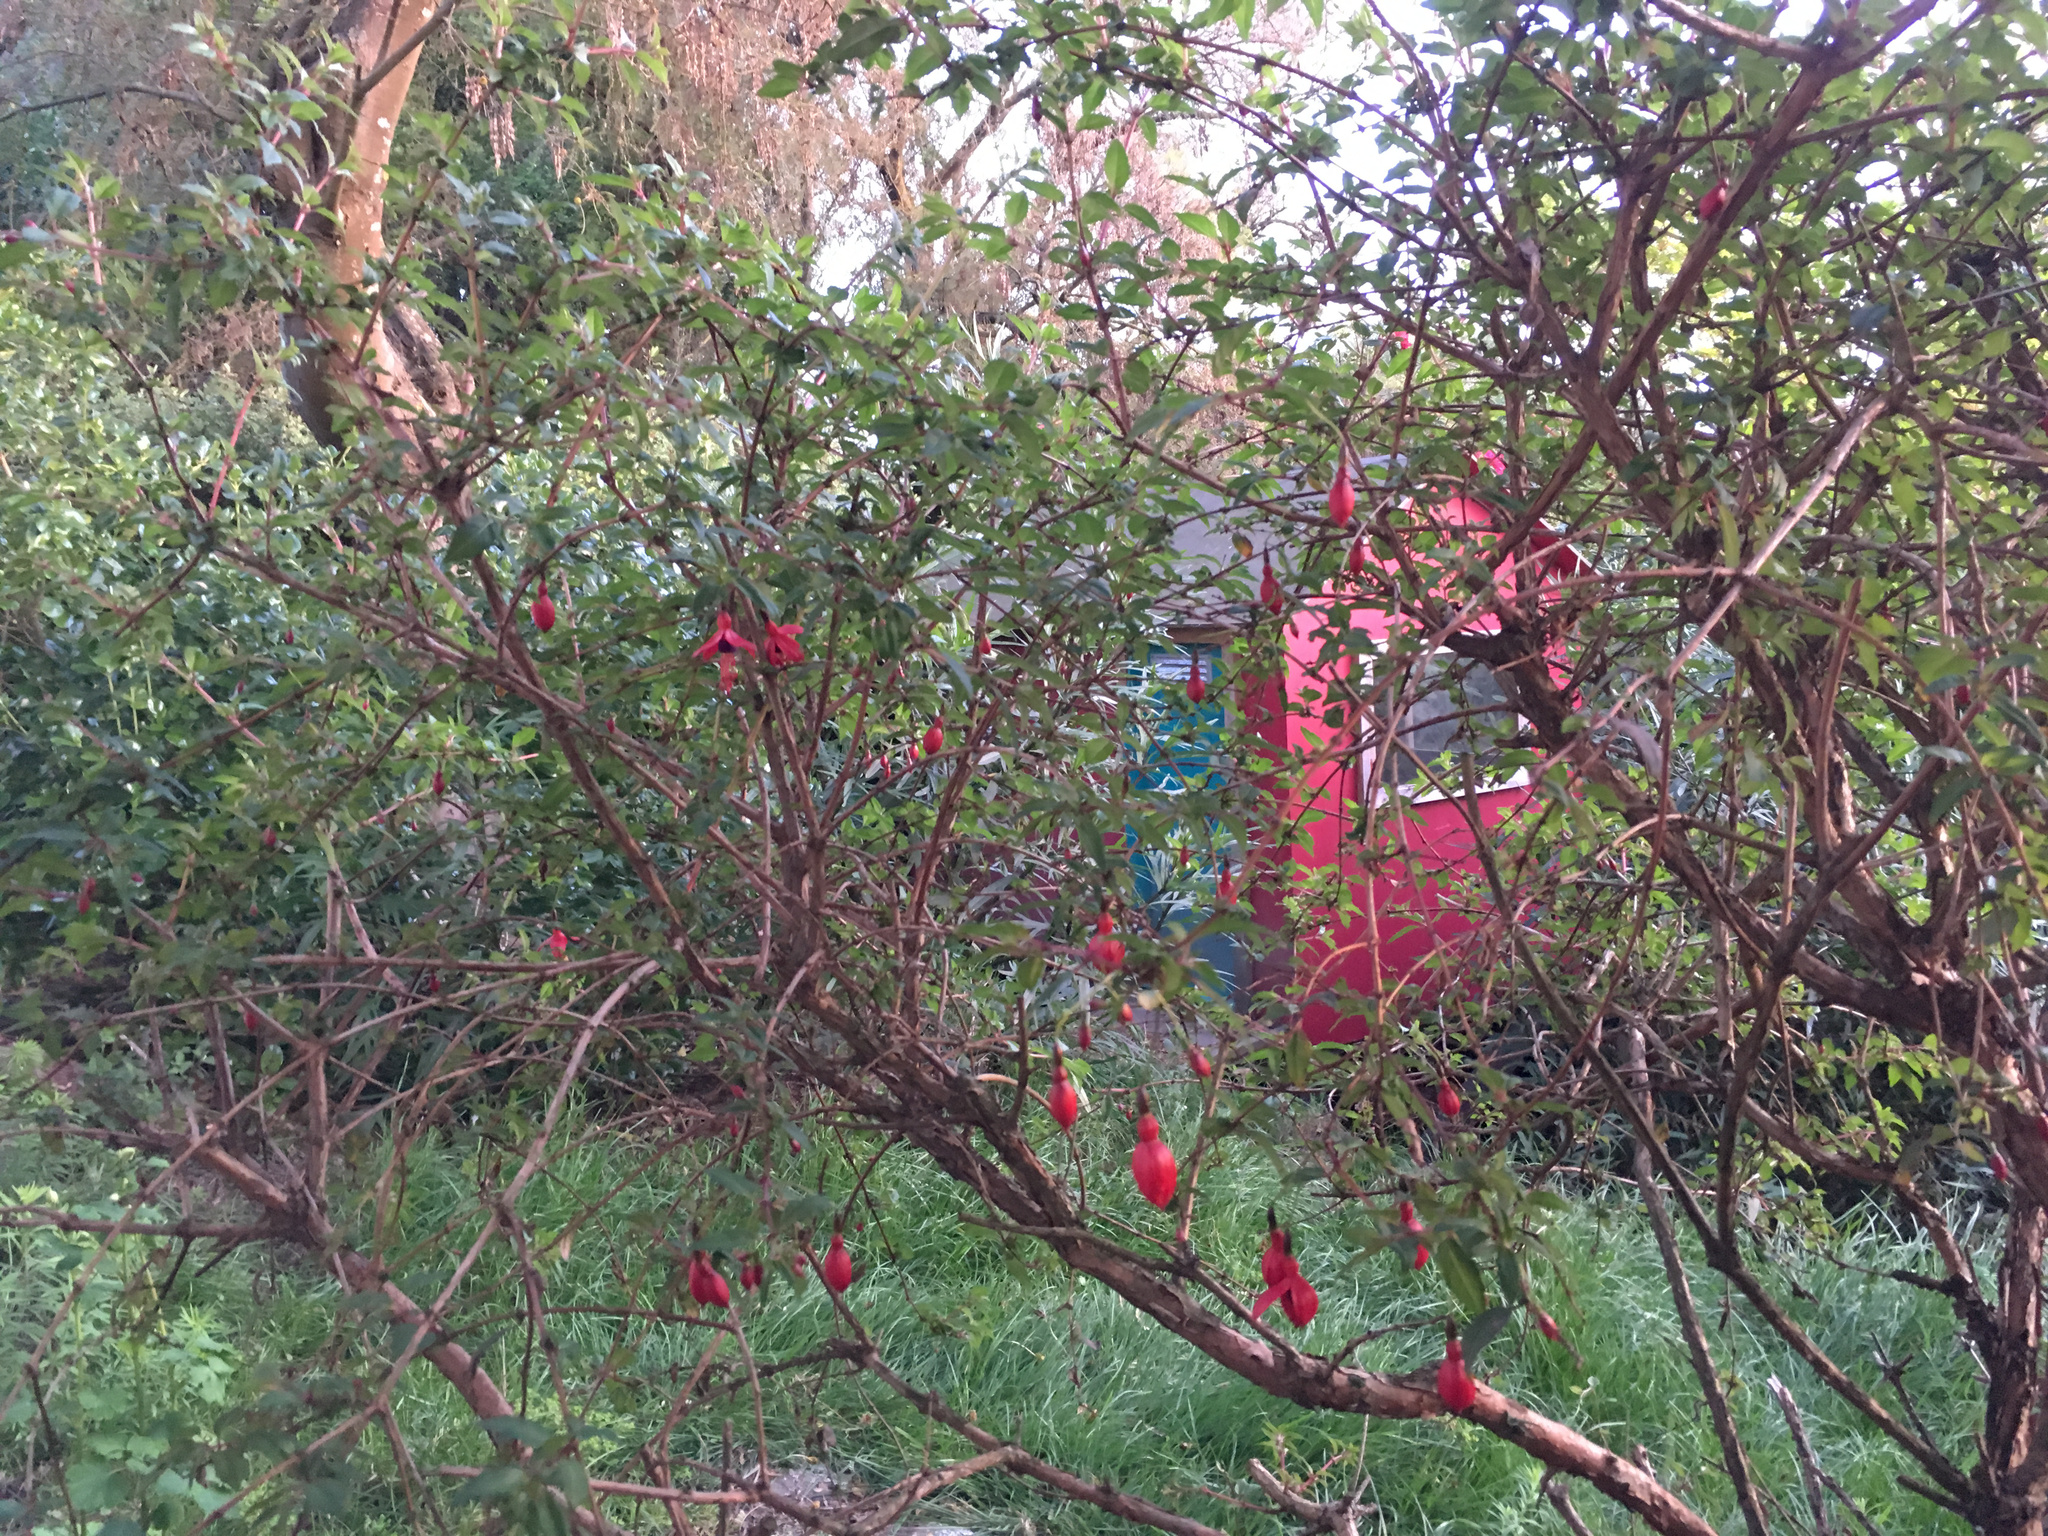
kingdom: Plantae
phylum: Tracheophyta
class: Magnoliopsida
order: Myrtales
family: Onagraceae
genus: Fuchsia
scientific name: Fuchsia magellanica
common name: Hardy fuchsia
